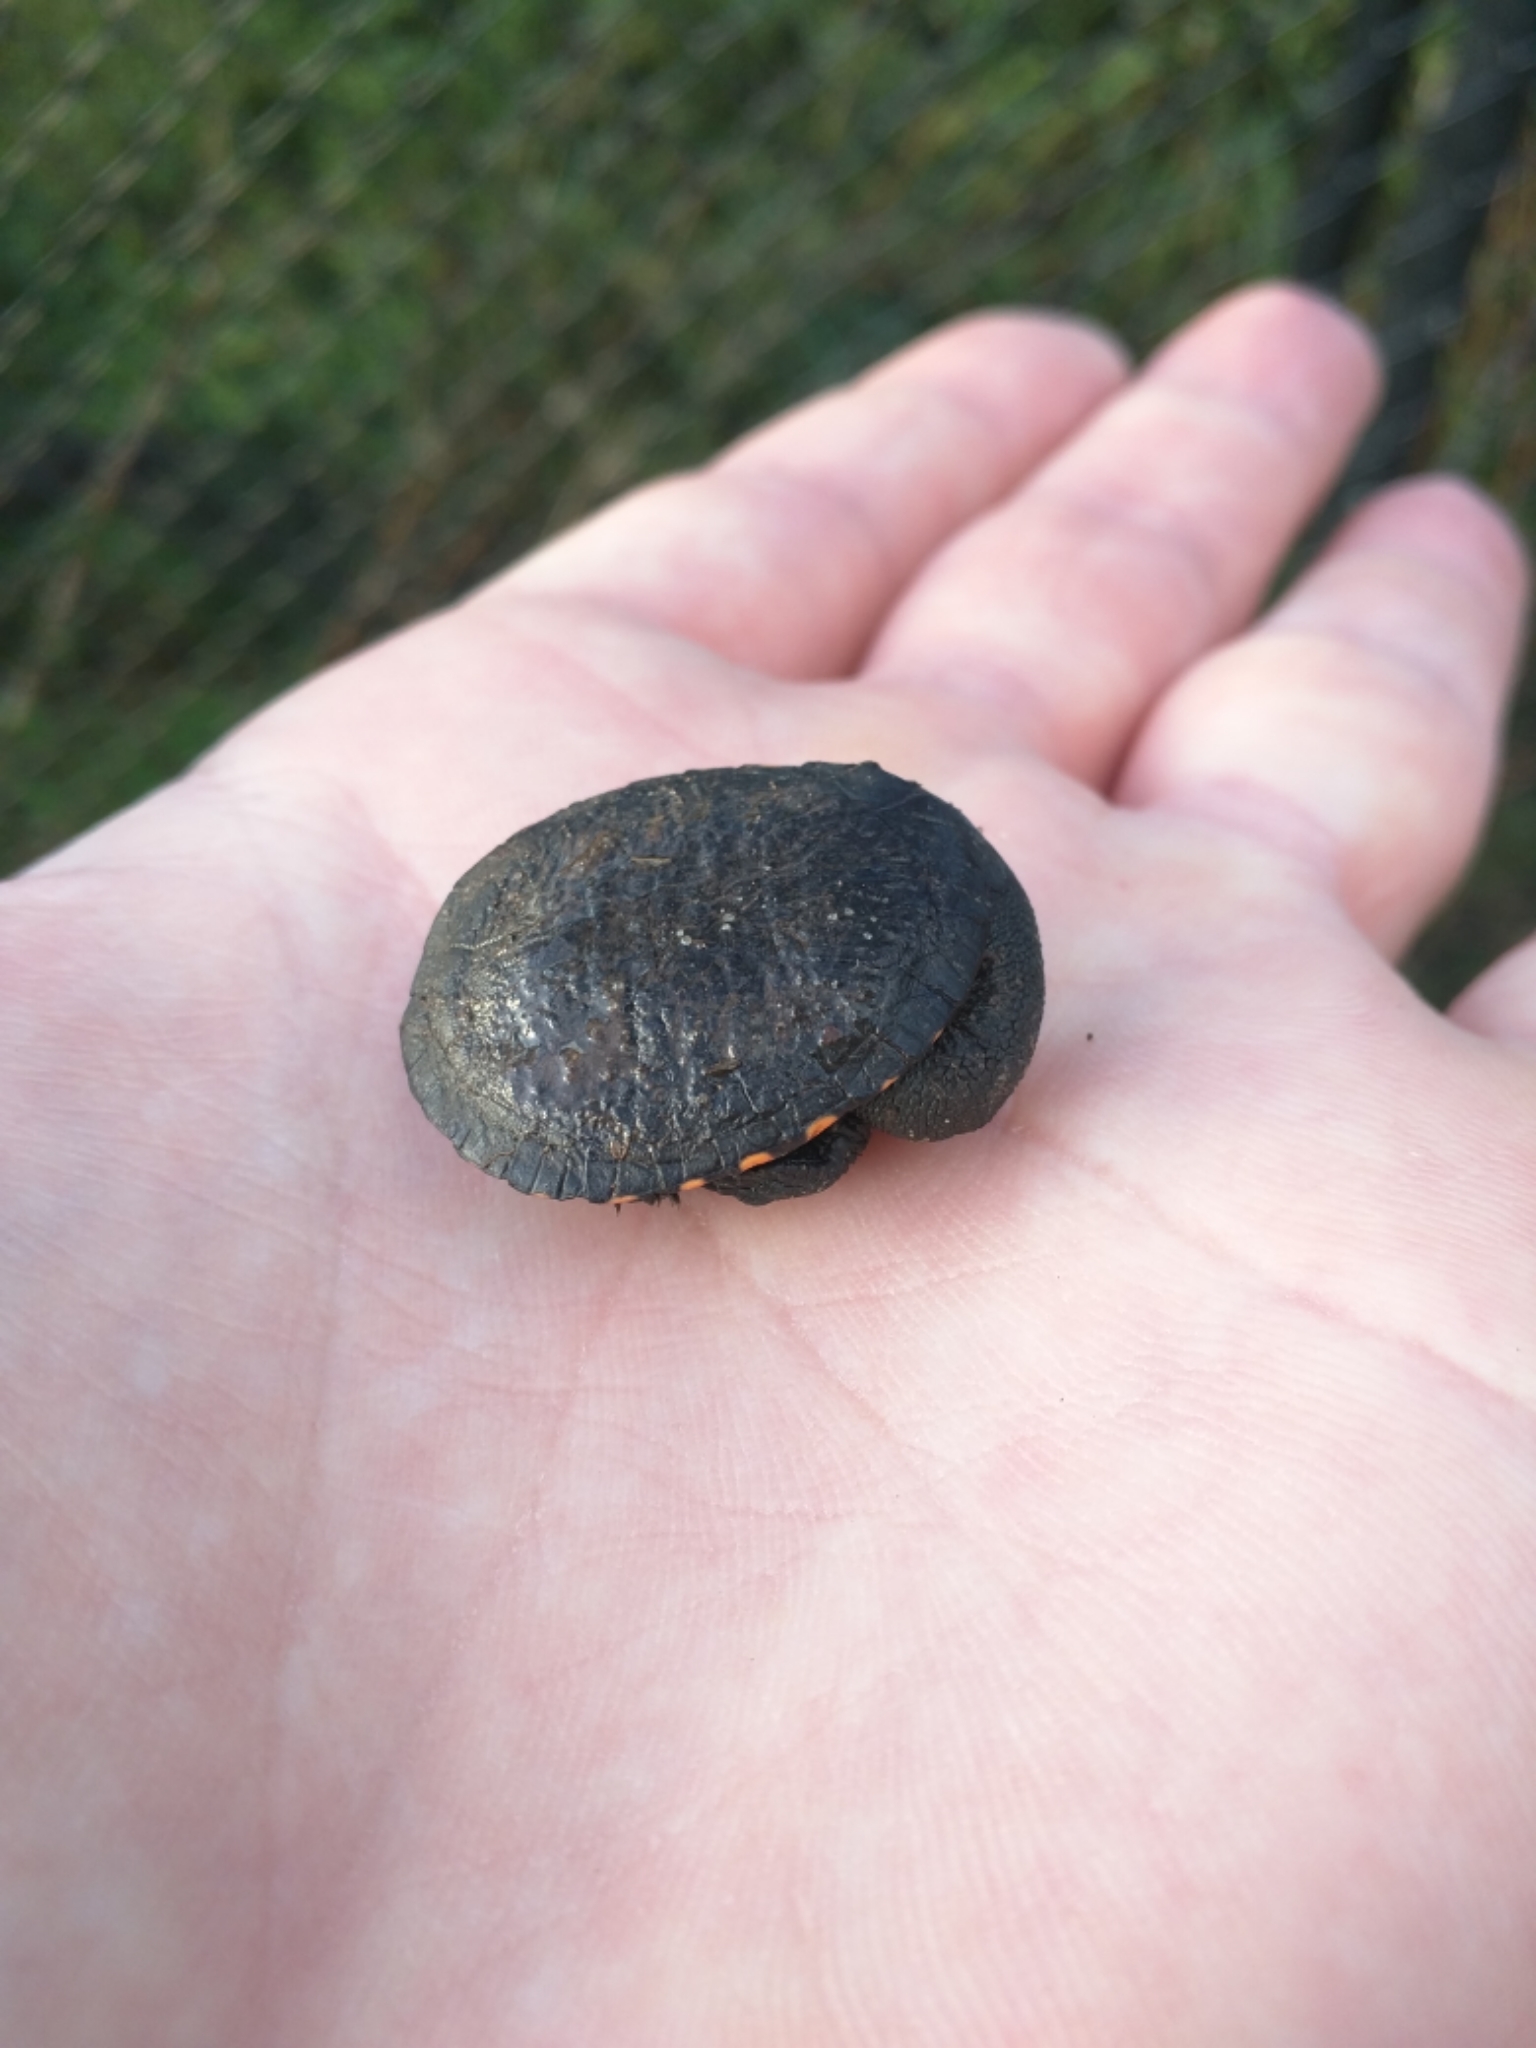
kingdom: Animalia
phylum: Chordata
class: Testudines
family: Chelidae
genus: Chelodina
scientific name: Chelodina longicollis
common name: Eastern snake-necked turtle
